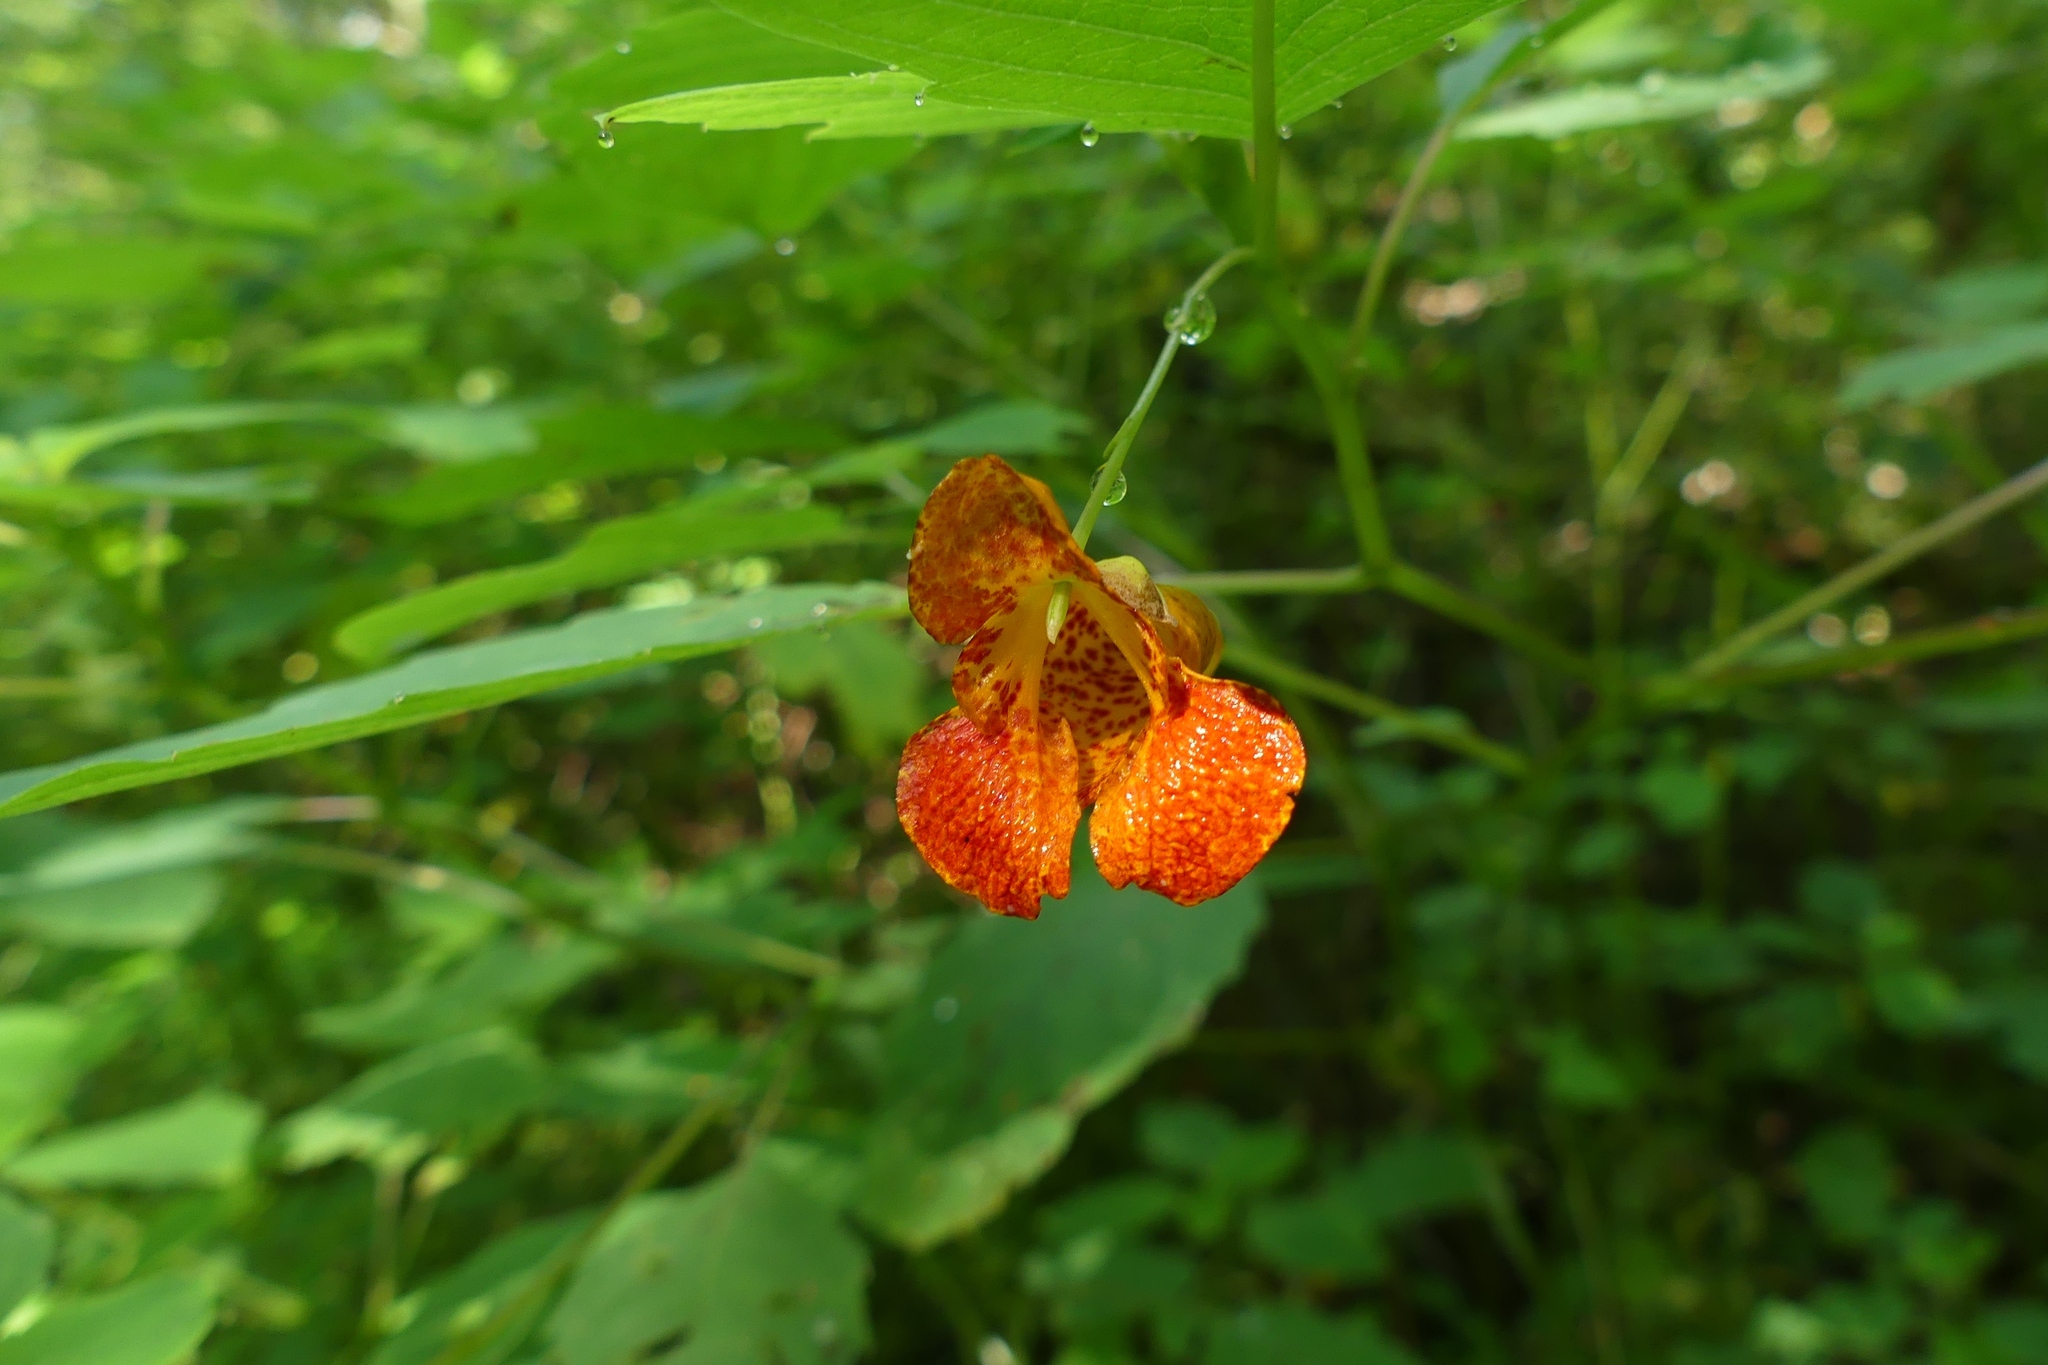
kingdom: Plantae
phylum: Tracheophyta
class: Magnoliopsida
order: Ericales
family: Balsaminaceae
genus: Impatiens
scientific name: Impatiens capensis
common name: Orange balsam
